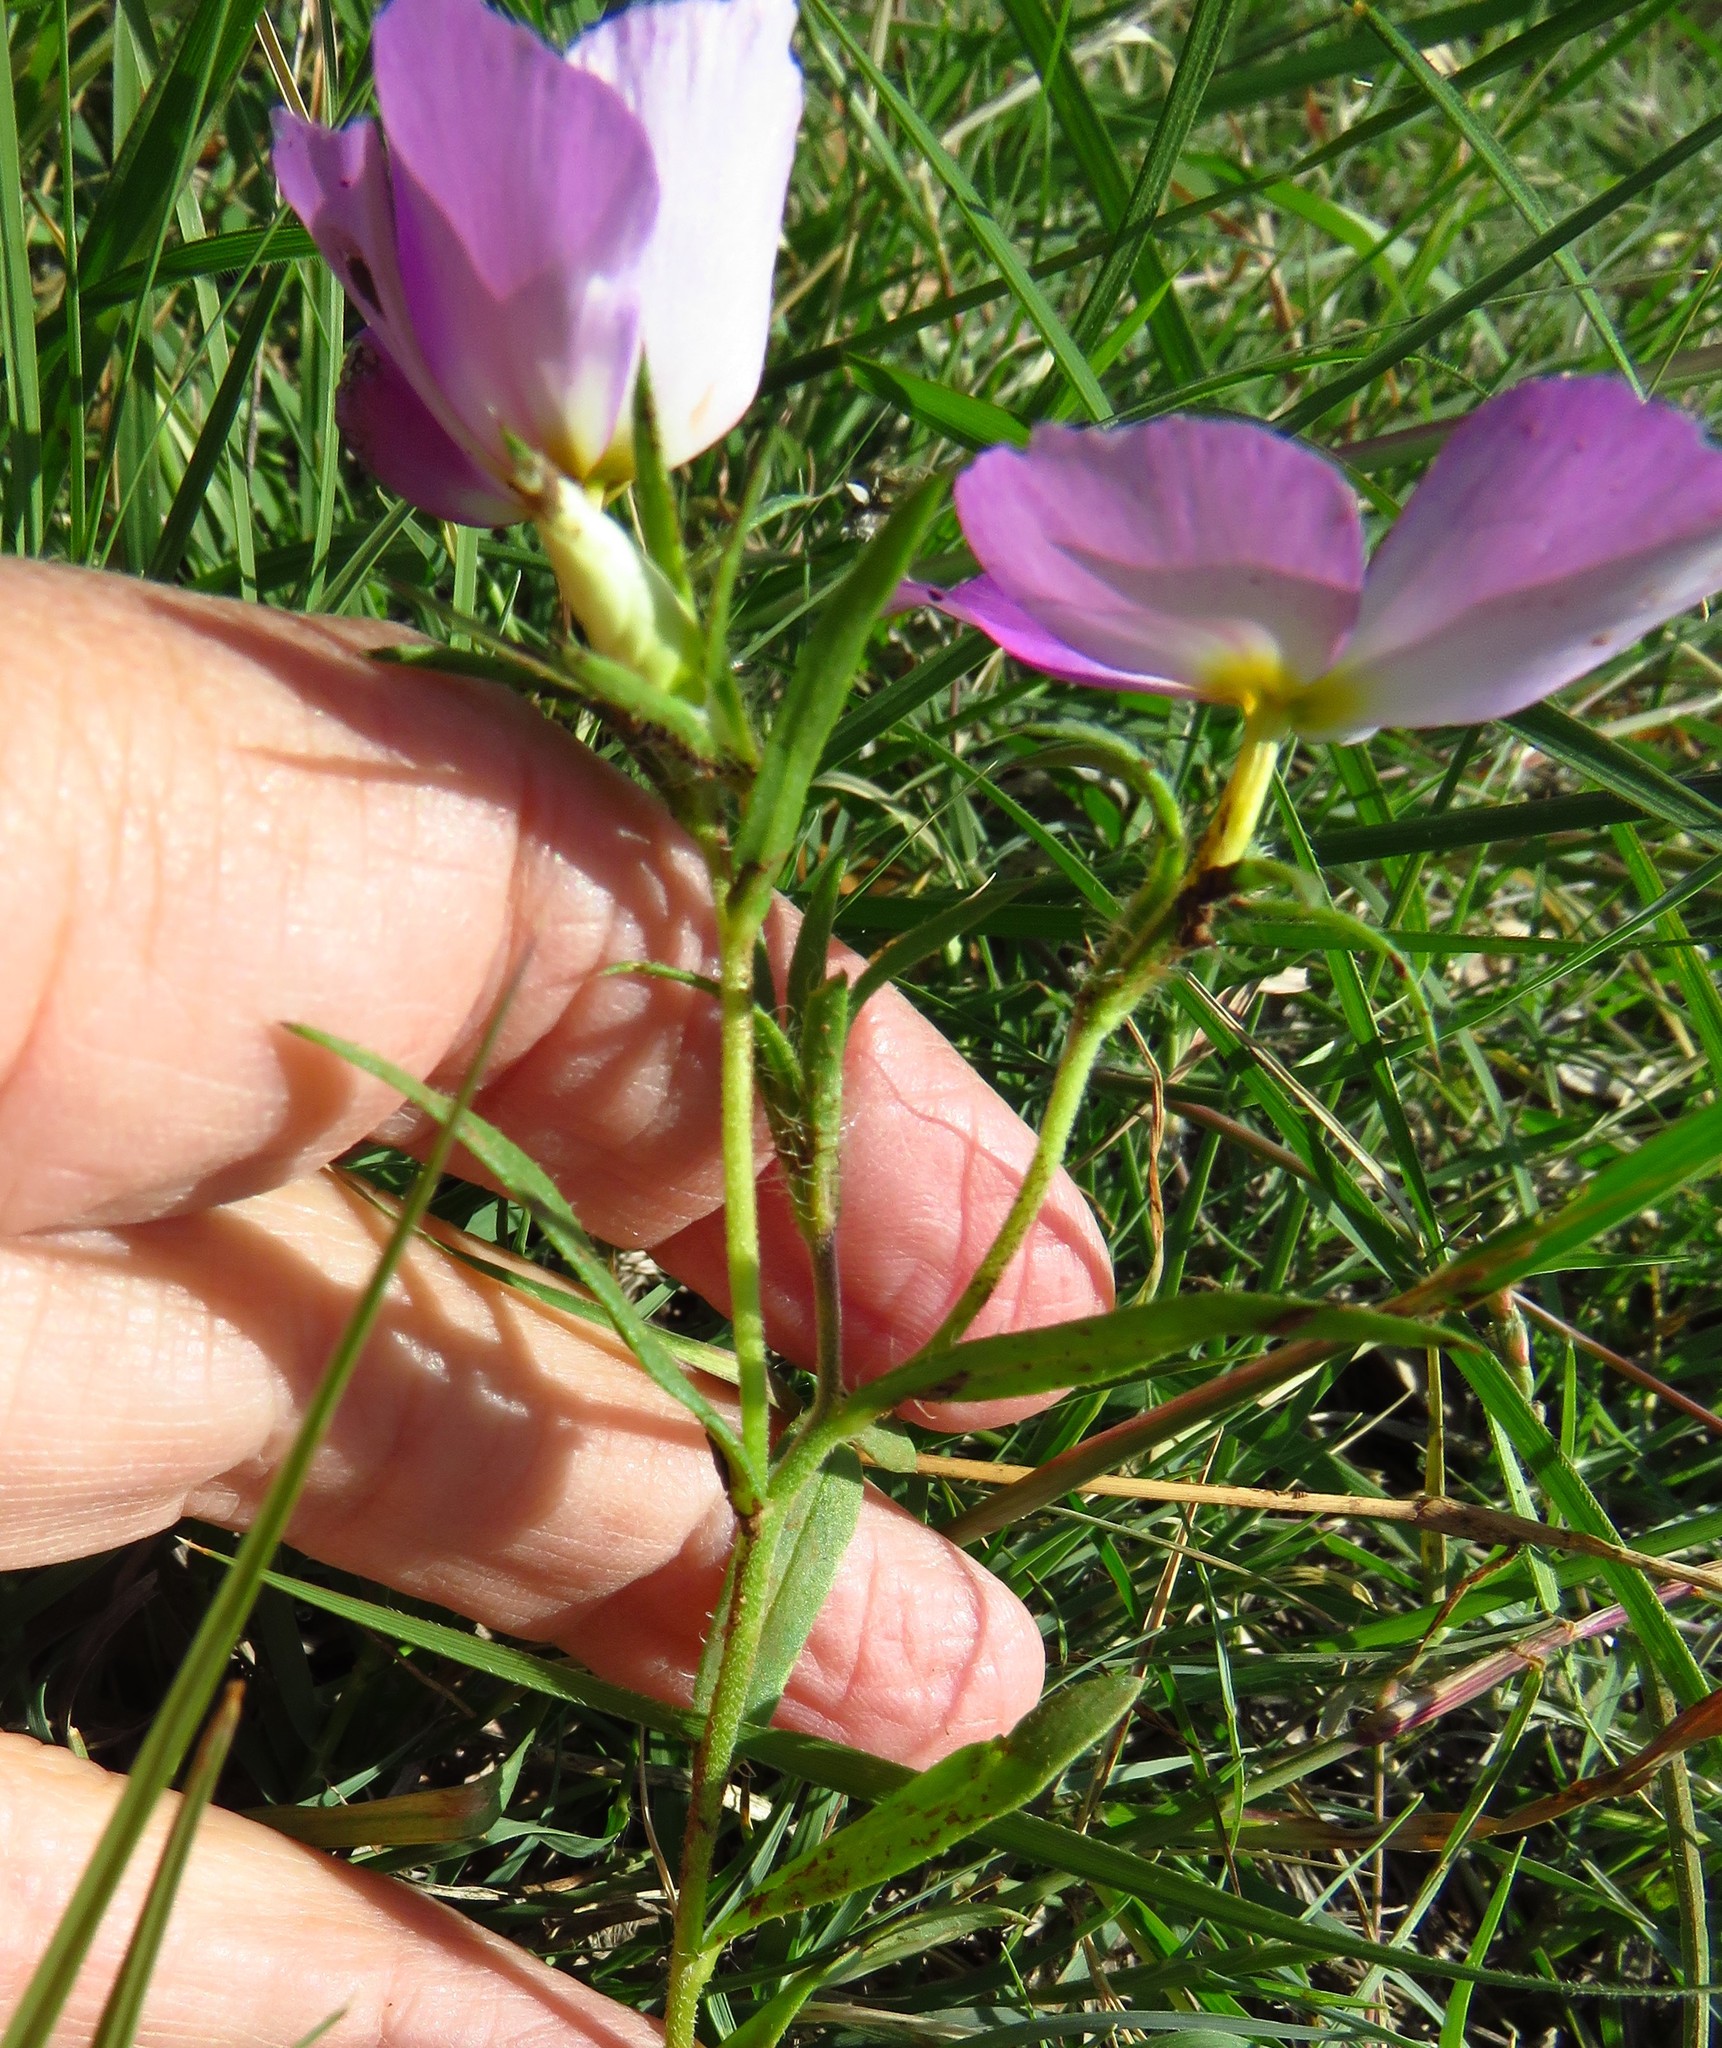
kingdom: Plantae
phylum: Tracheophyta
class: Magnoliopsida
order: Ericales
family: Polemoniaceae
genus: Phlox
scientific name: Phlox roemeriana
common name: Roemer's phlox
